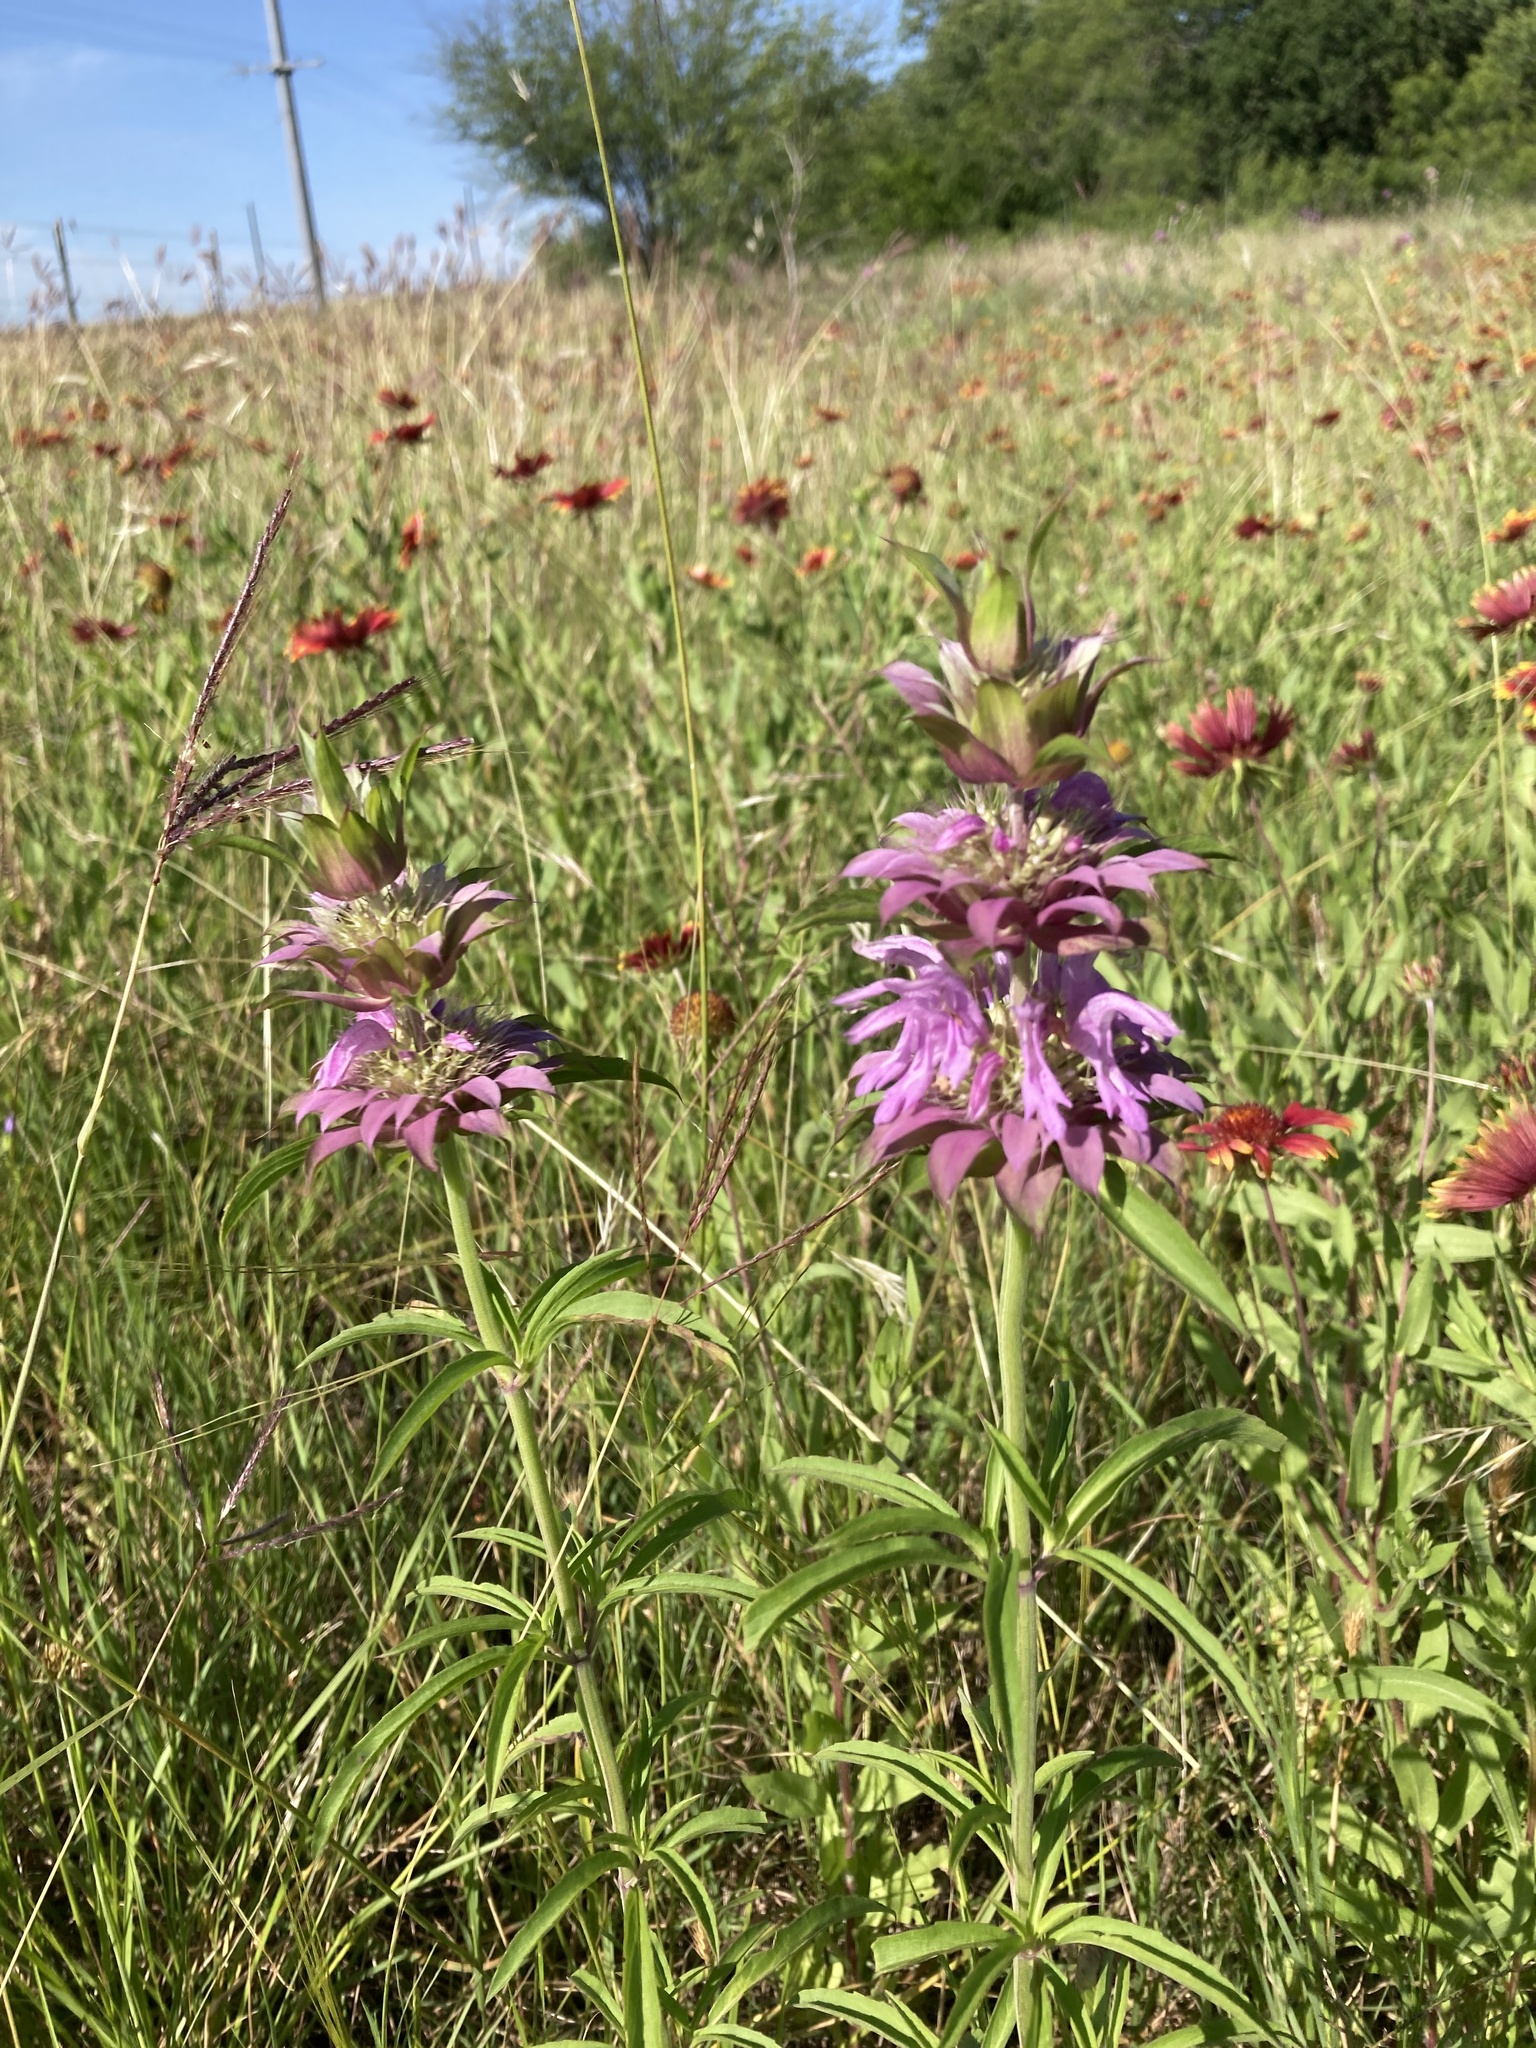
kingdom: Plantae
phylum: Tracheophyta
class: Magnoliopsida
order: Lamiales
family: Lamiaceae
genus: Monarda
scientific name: Monarda citriodora
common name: Lemon beebalm
